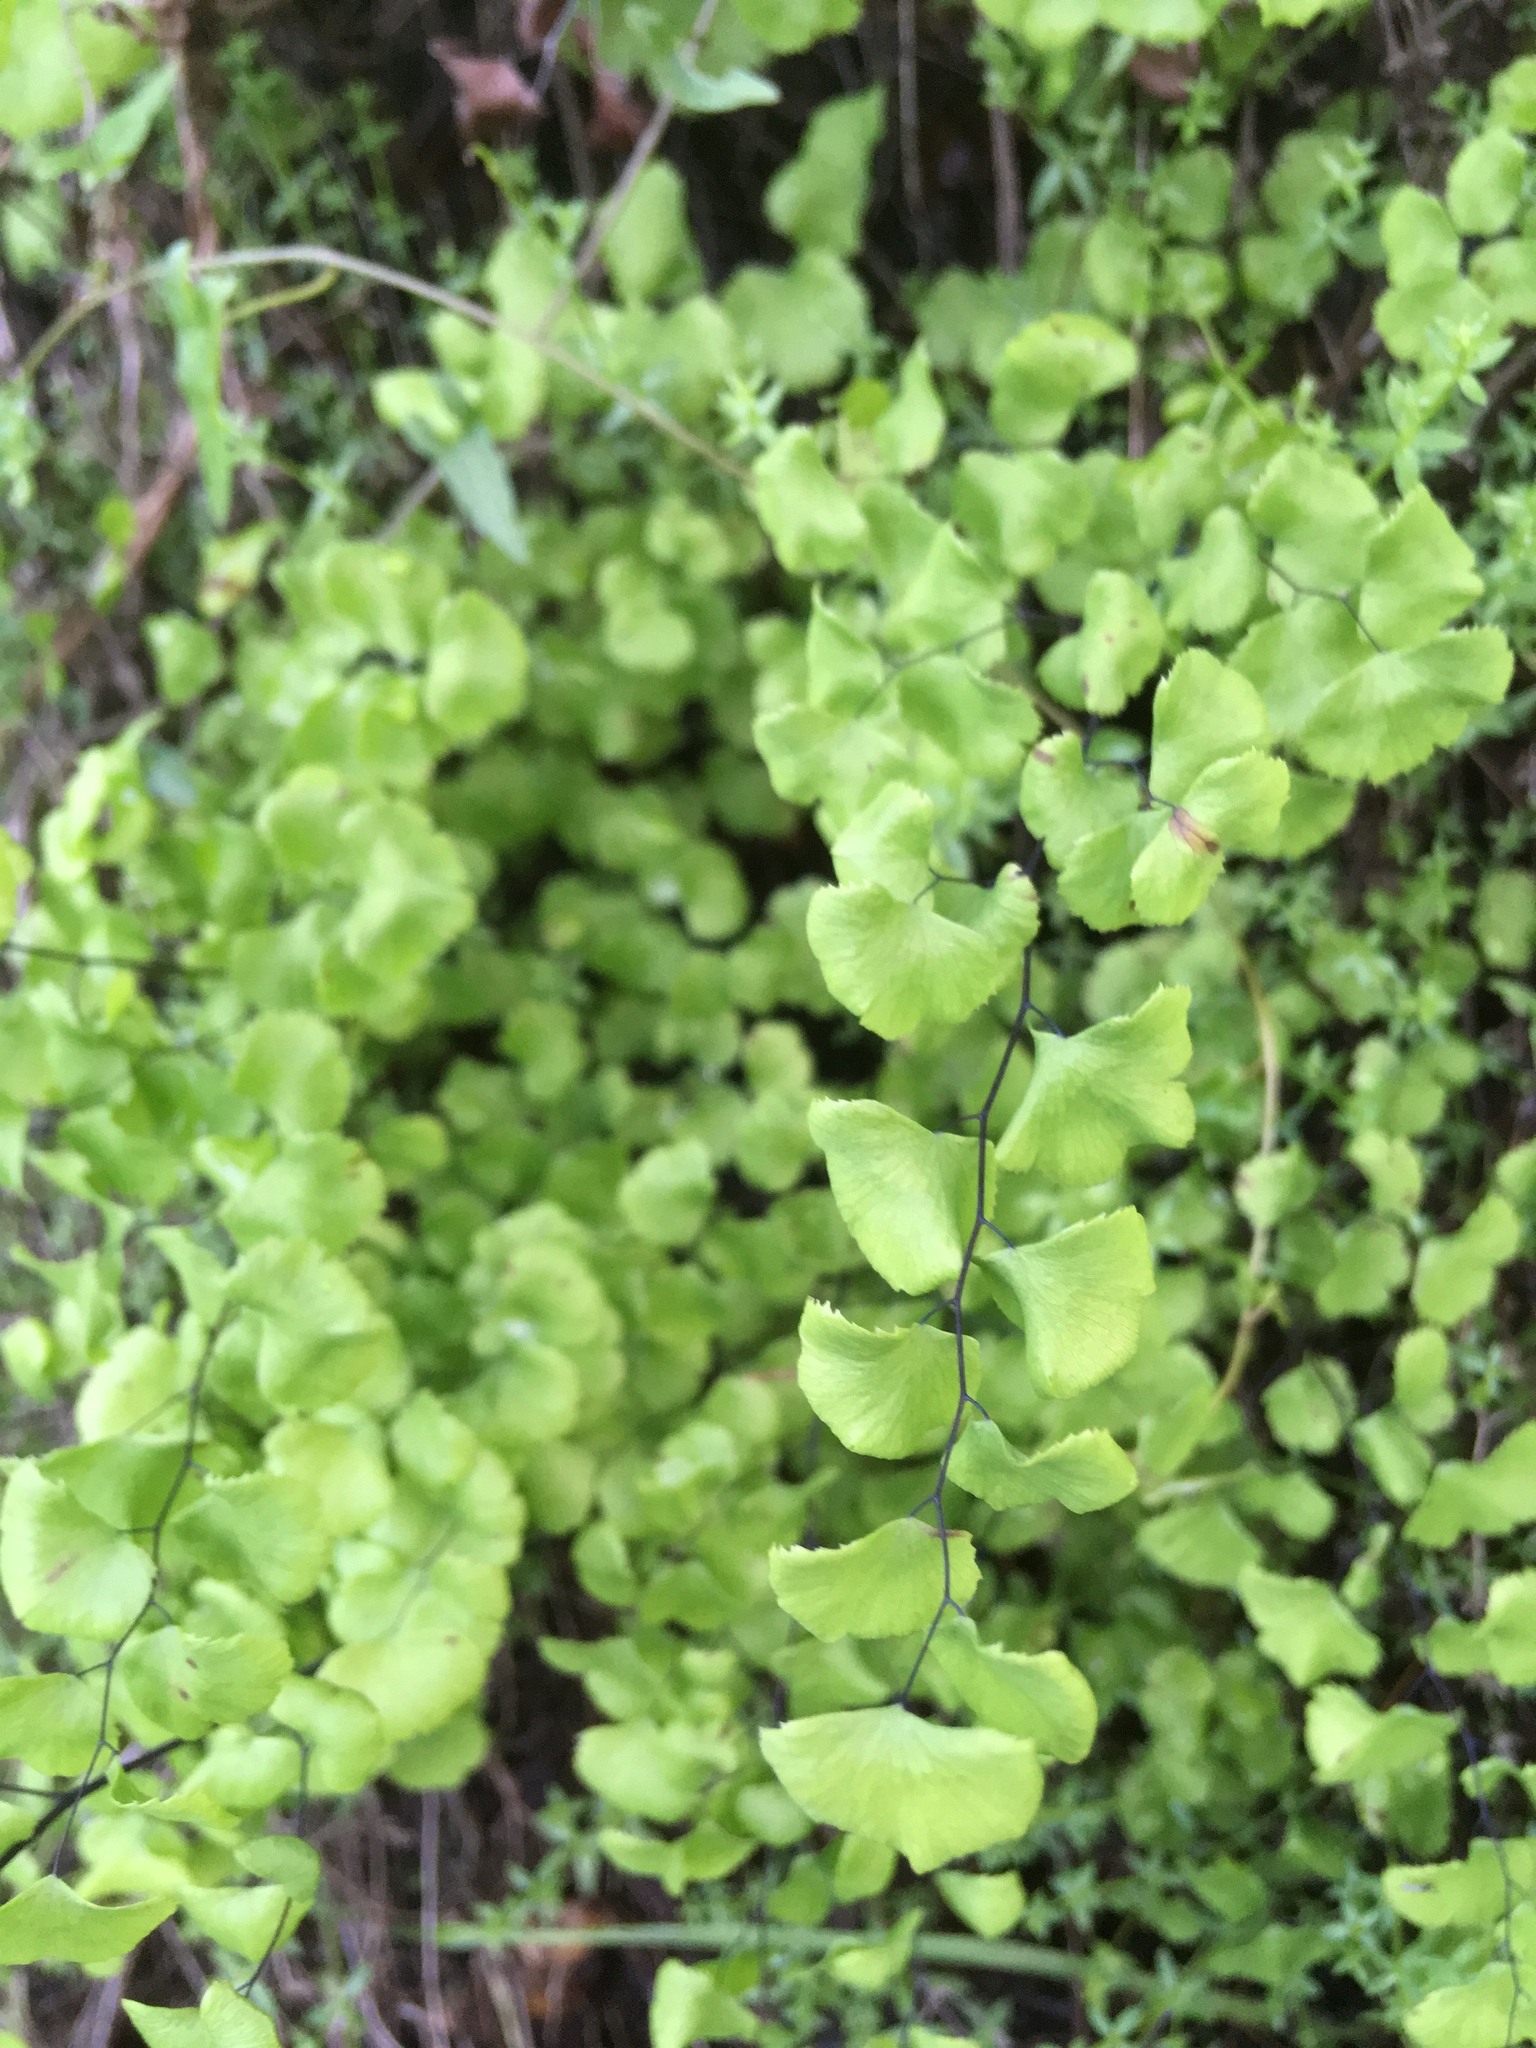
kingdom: Plantae
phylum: Tracheophyta
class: Polypodiopsida
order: Polypodiales
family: Pteridaceae
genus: Adiantum
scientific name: Adiantum jordanii
